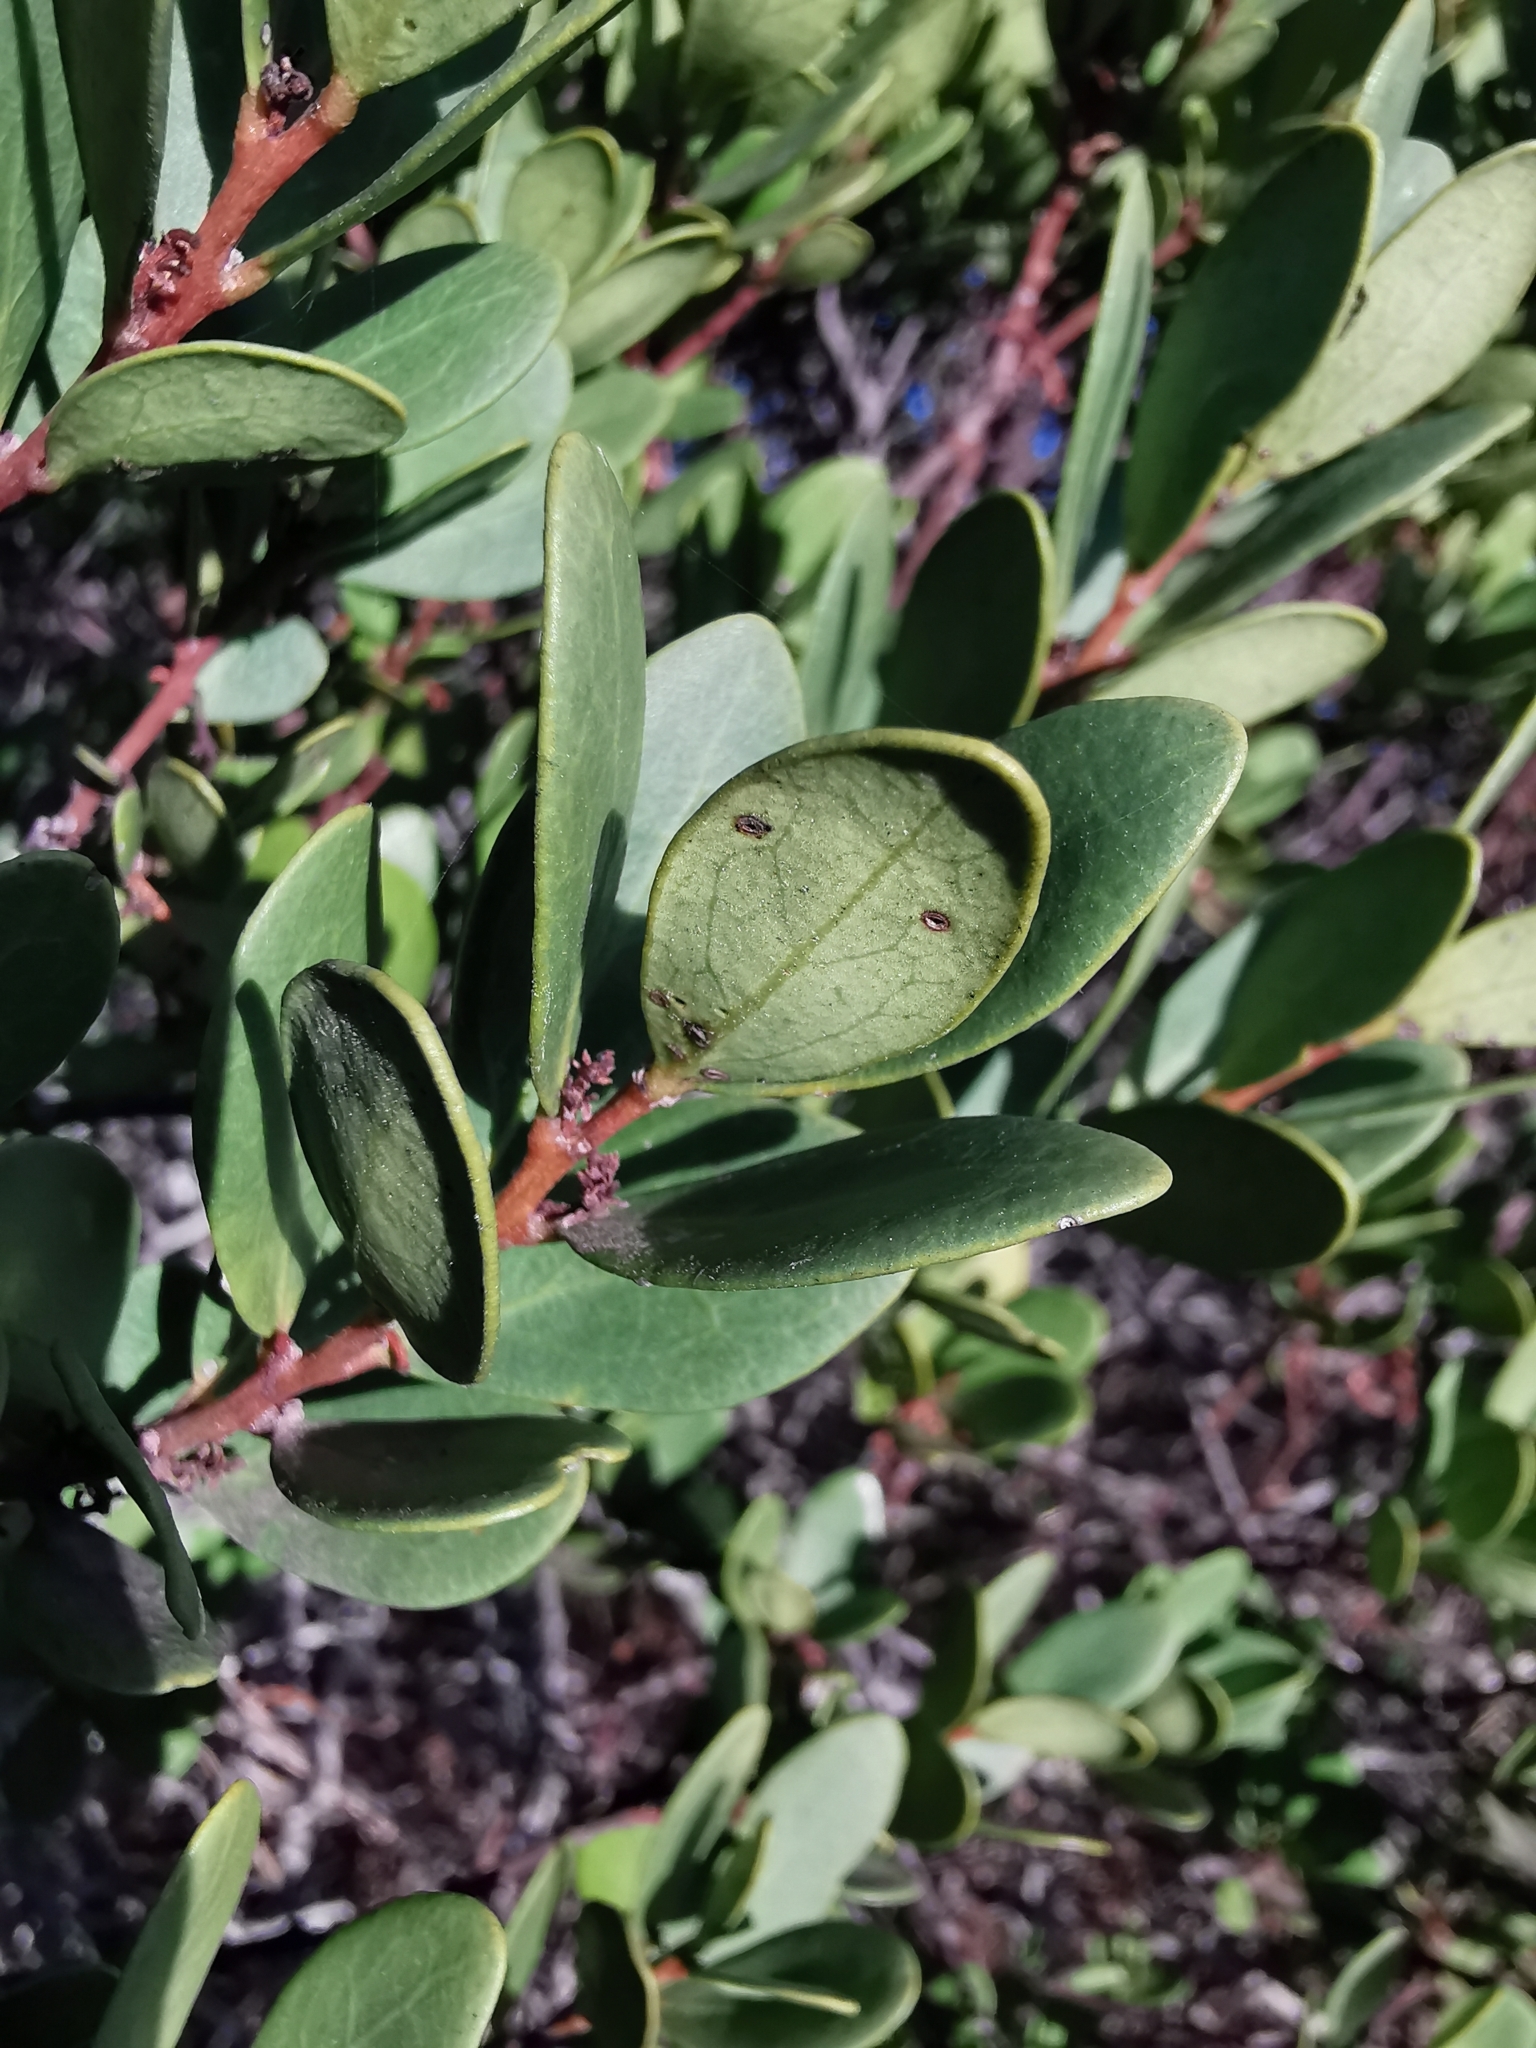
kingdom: Plantae
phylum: Tracheophyta
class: Magnoliopsida
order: Ericales
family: Ebenaceae
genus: Euclea
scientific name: Euclea racemosa
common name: Dune guarri
